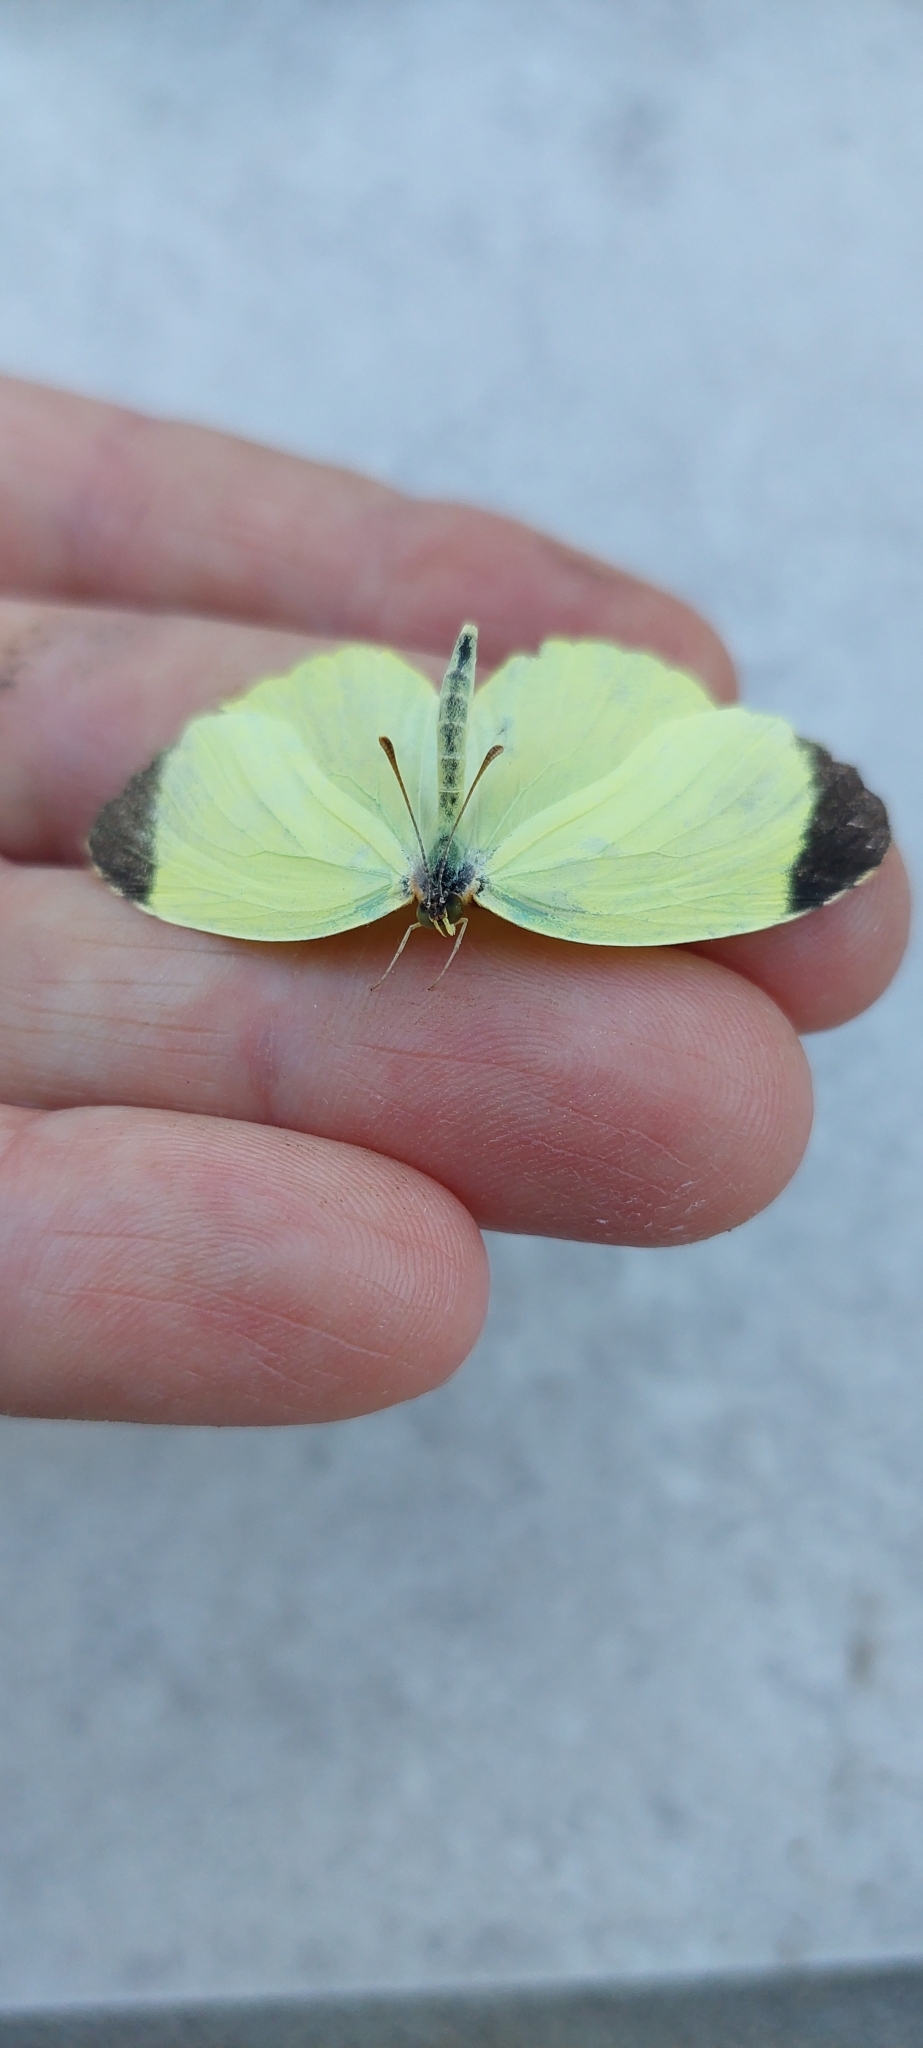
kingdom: Animalia
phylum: Arthropoda
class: Insecta
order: Lepidoptera
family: Pieridae
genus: Teriocolias
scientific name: Teriocolias
